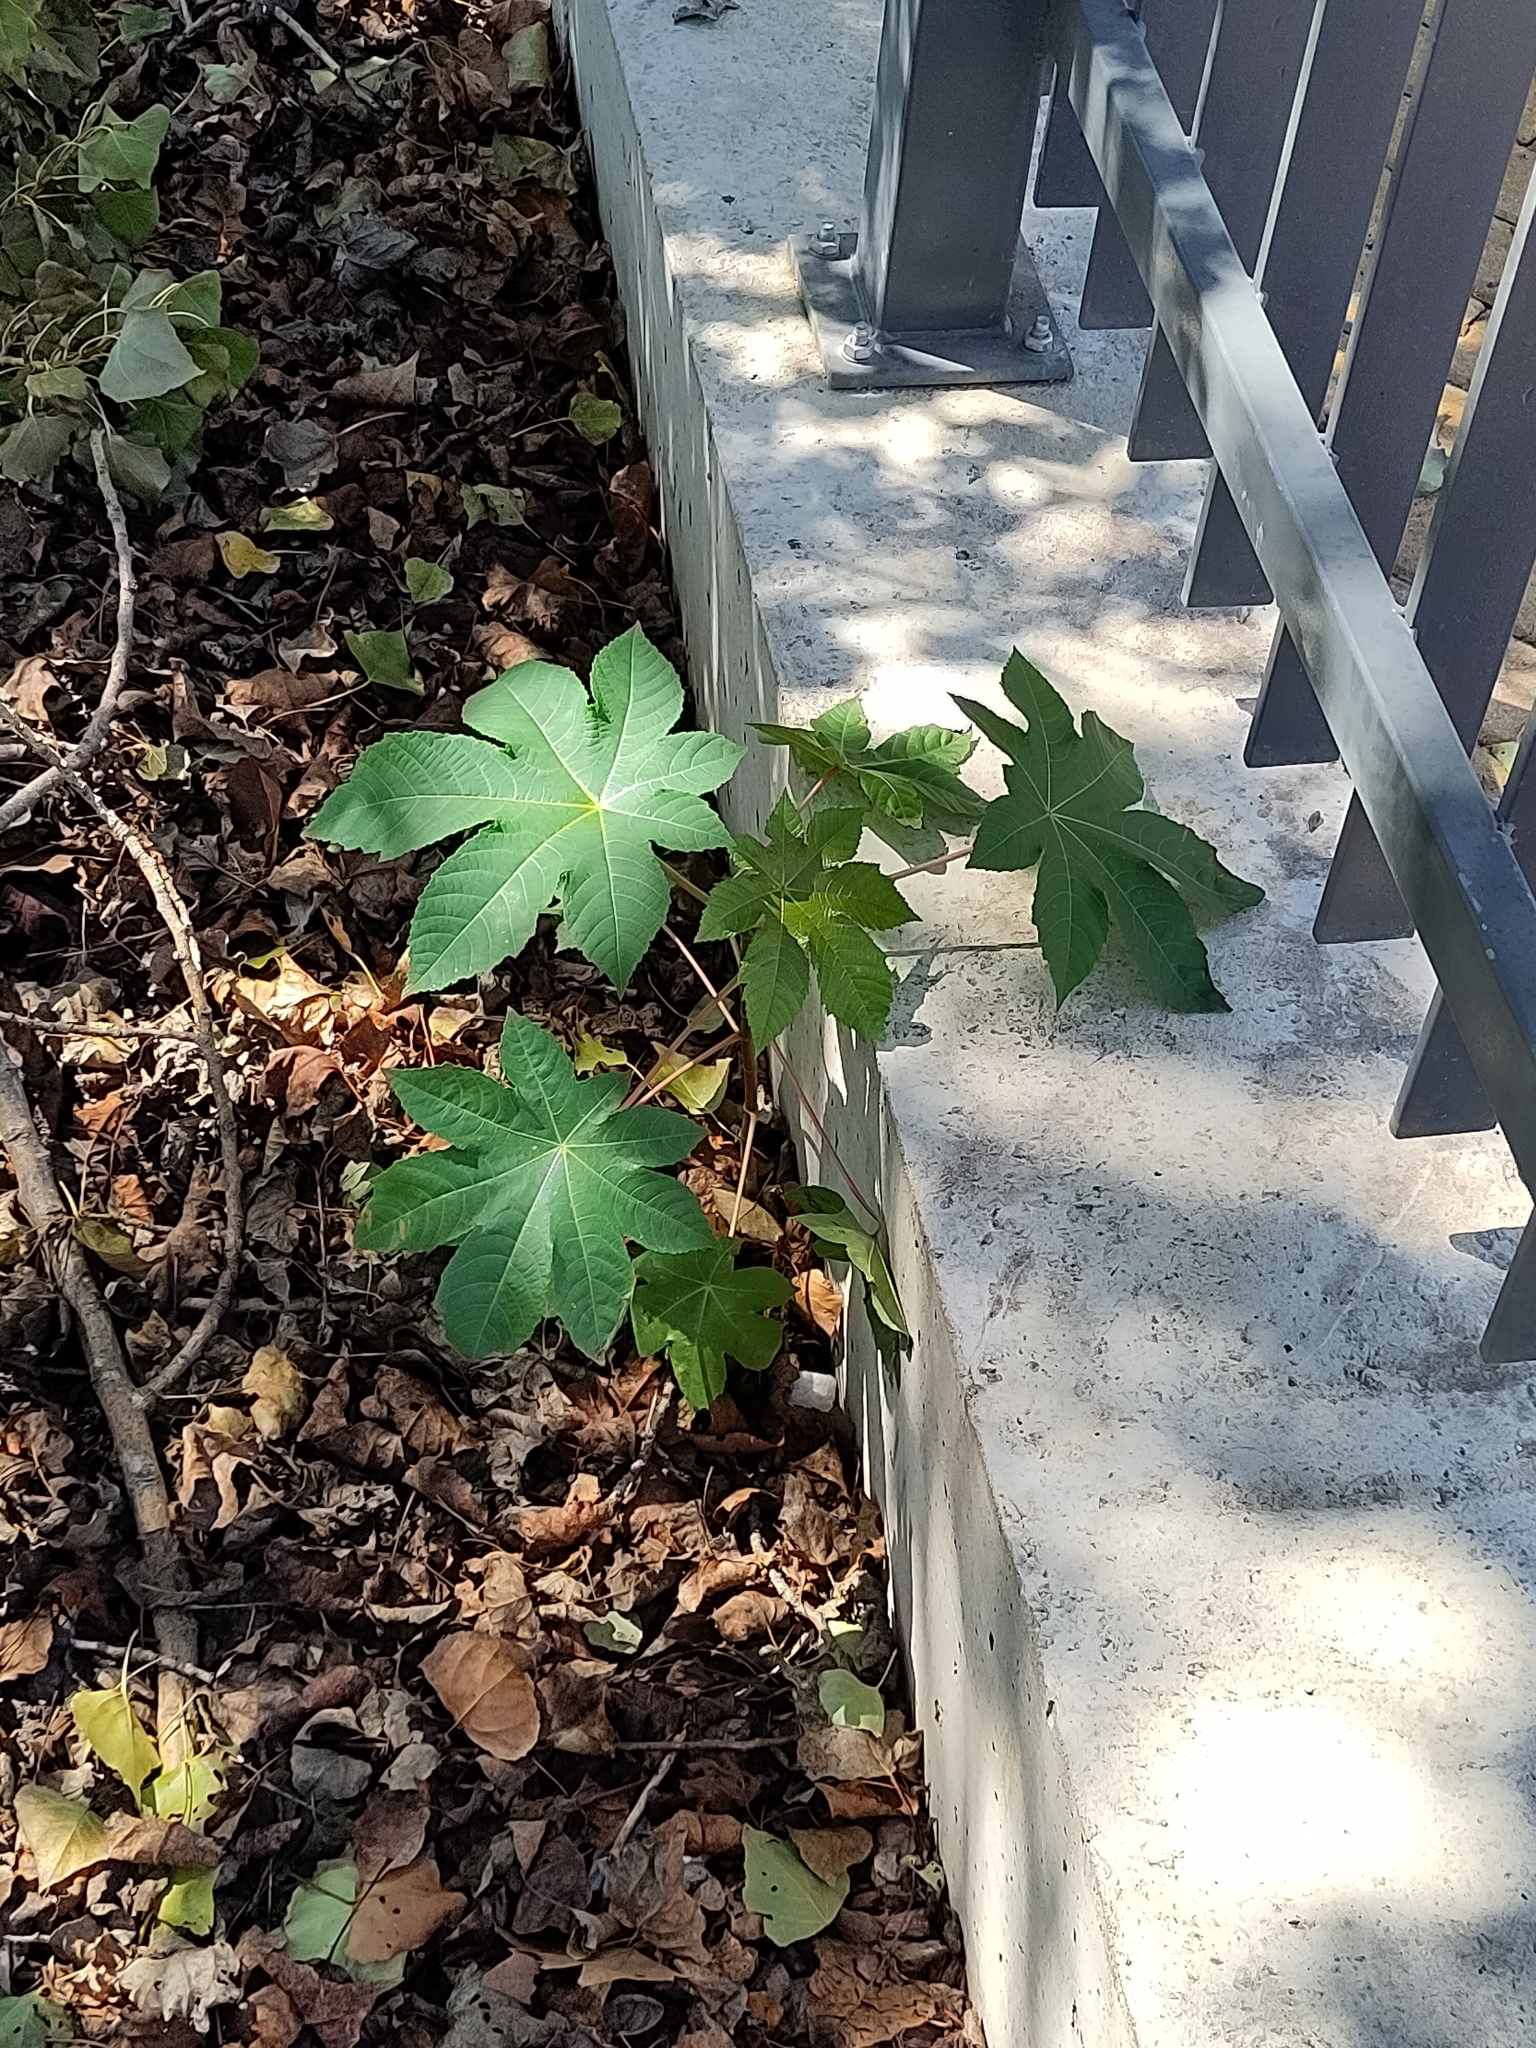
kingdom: Plantae
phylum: Tracheophyta
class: Magnoliopsida
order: Malpighiales
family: Euphorbiaceae
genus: Ricinus
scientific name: Ricinus communis
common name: Castor-oil-plant
